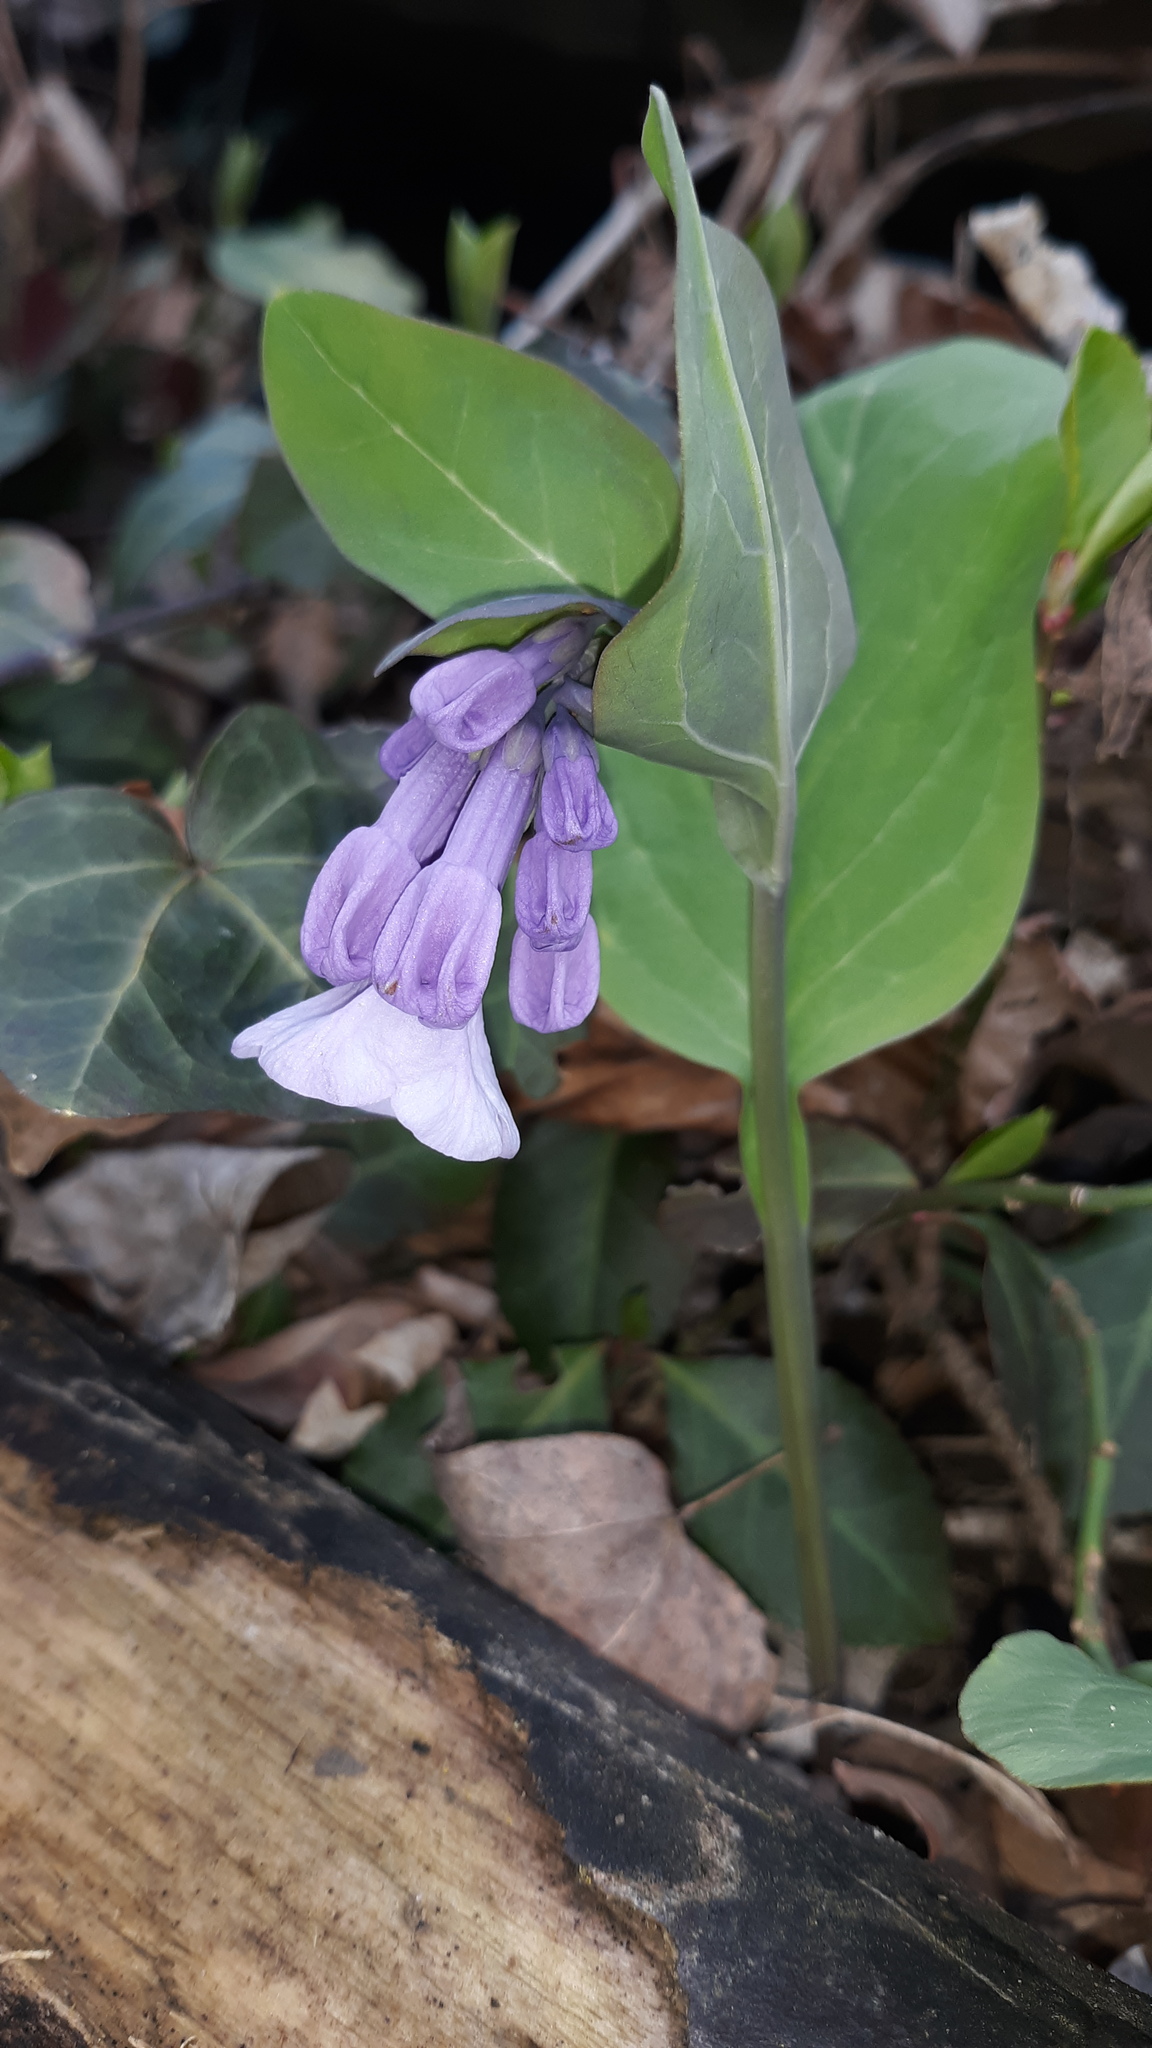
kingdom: Plantae
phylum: Tracheophyta
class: Magnoliopsida
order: Boraginales
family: Boraginaceae
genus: Mertensia
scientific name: Mertensia virginica
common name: Virginia bluebells
